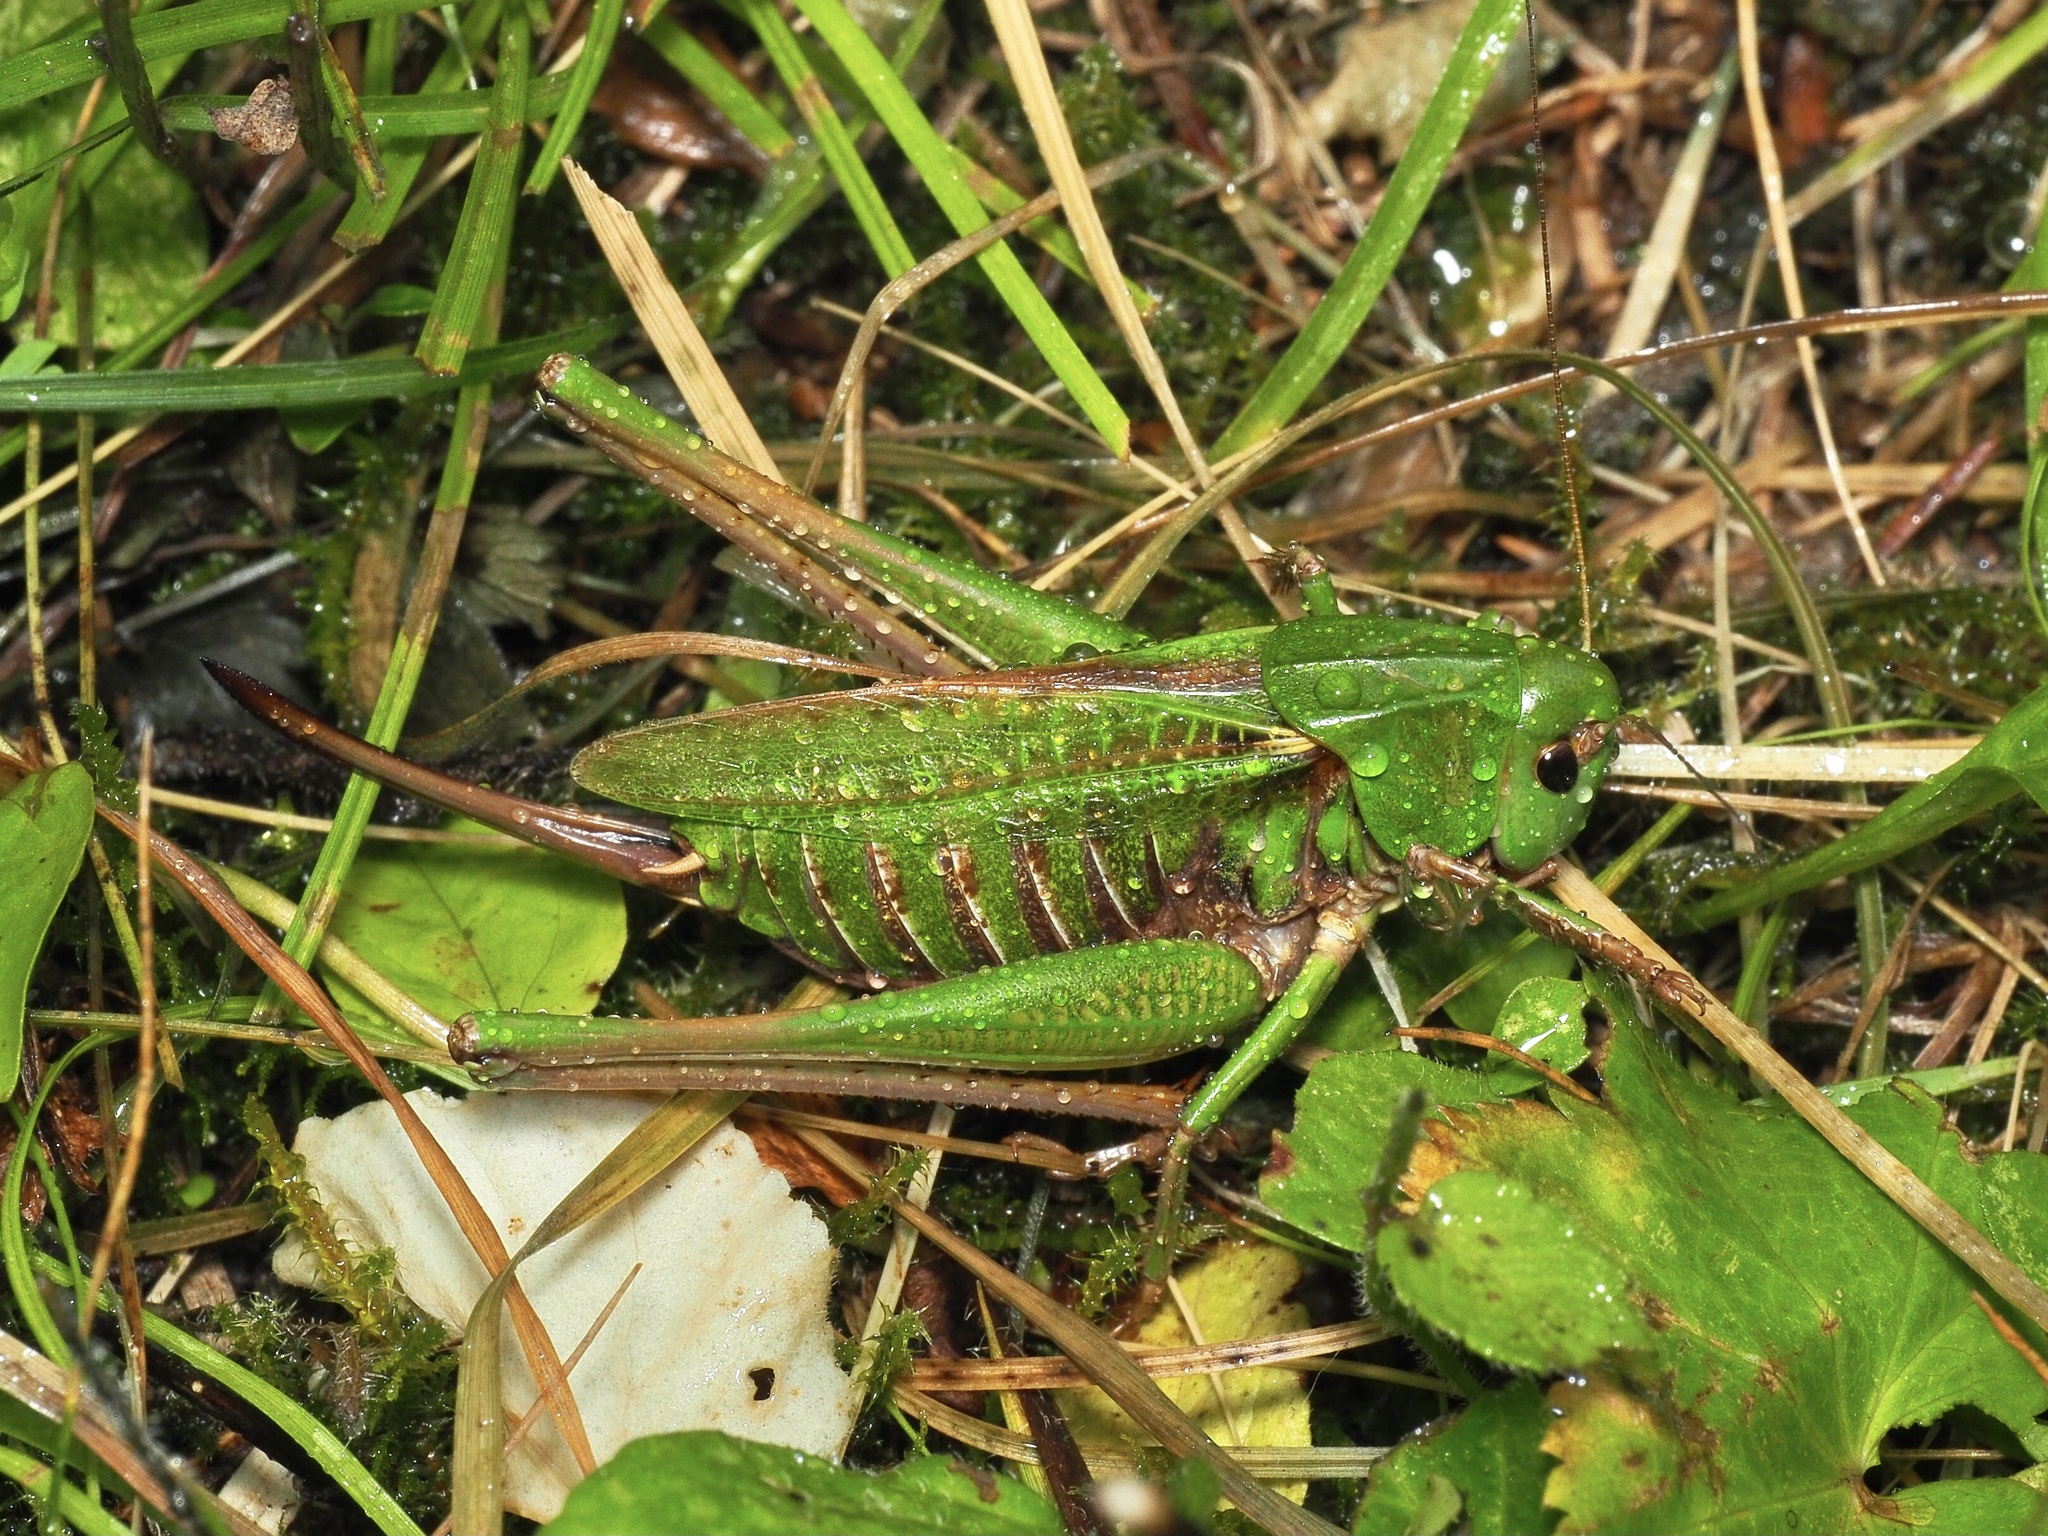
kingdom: Animalia
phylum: Arthropoda
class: Insecta
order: Orthoptera
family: Tettigoniidae
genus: Decticus
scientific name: Decticus verrucivorus
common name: Wart-biter
